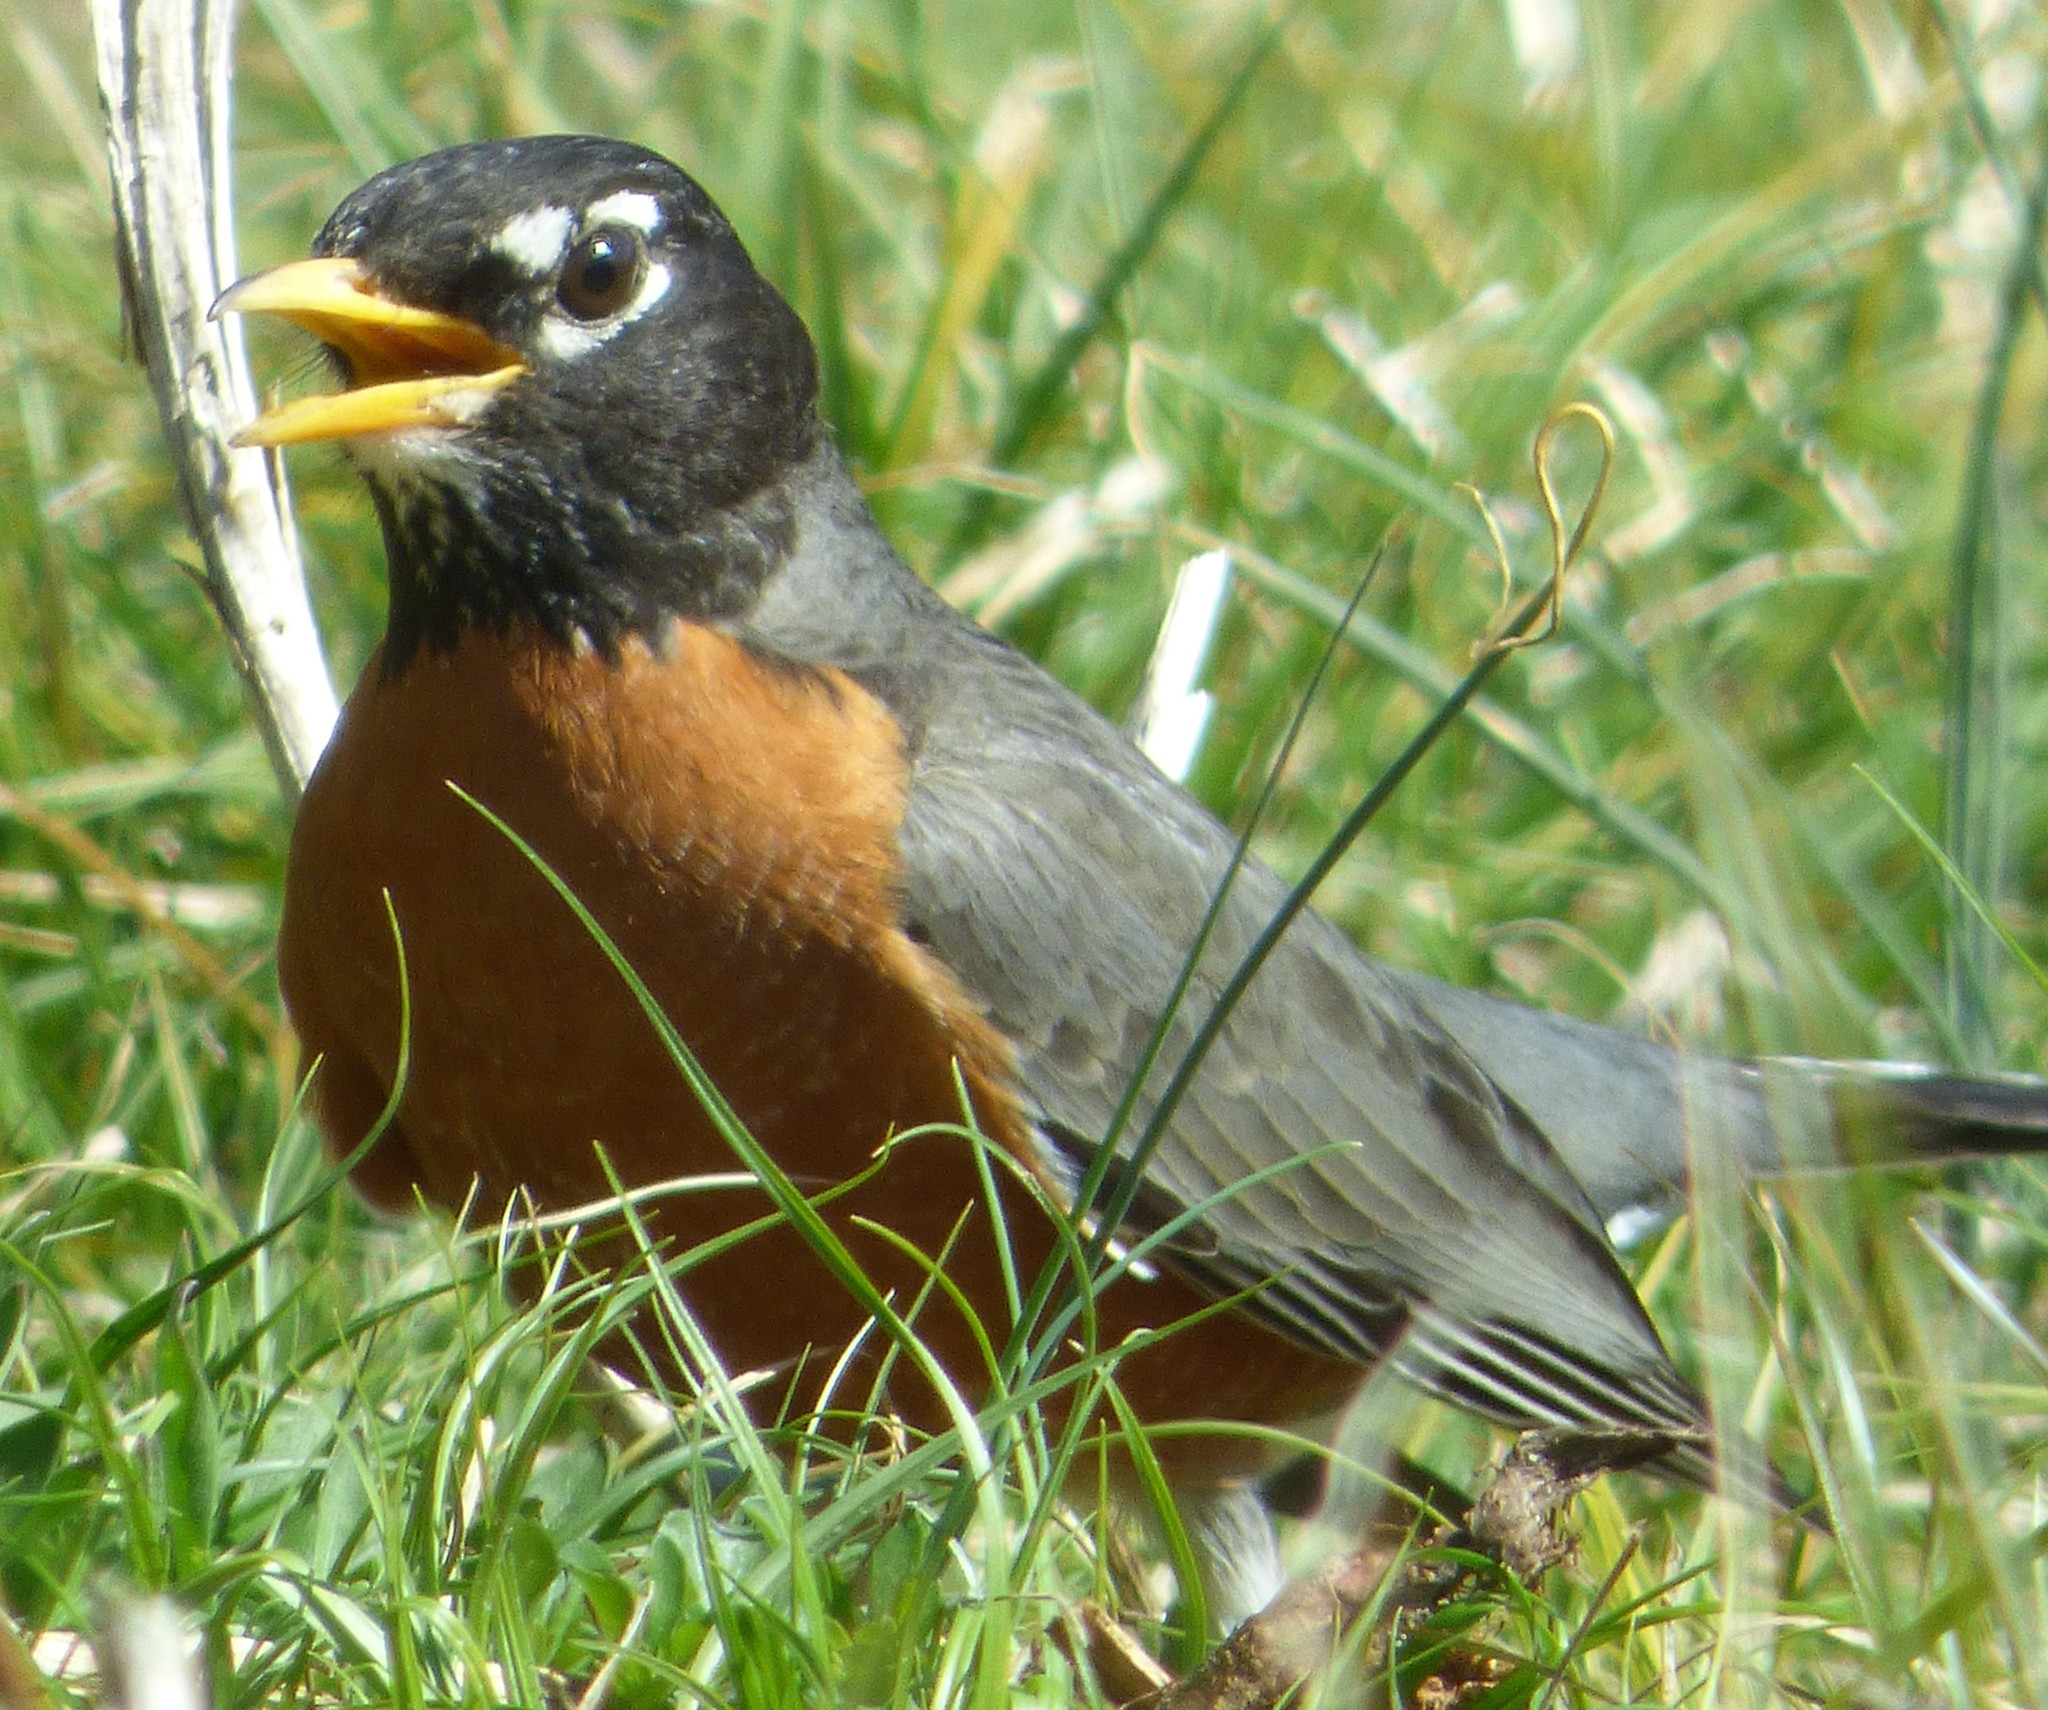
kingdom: Animalia
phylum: Chordata
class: Aves
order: Passeriformes
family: Turdidae
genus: Turdus
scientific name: Turdus migratorius
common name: American robin
